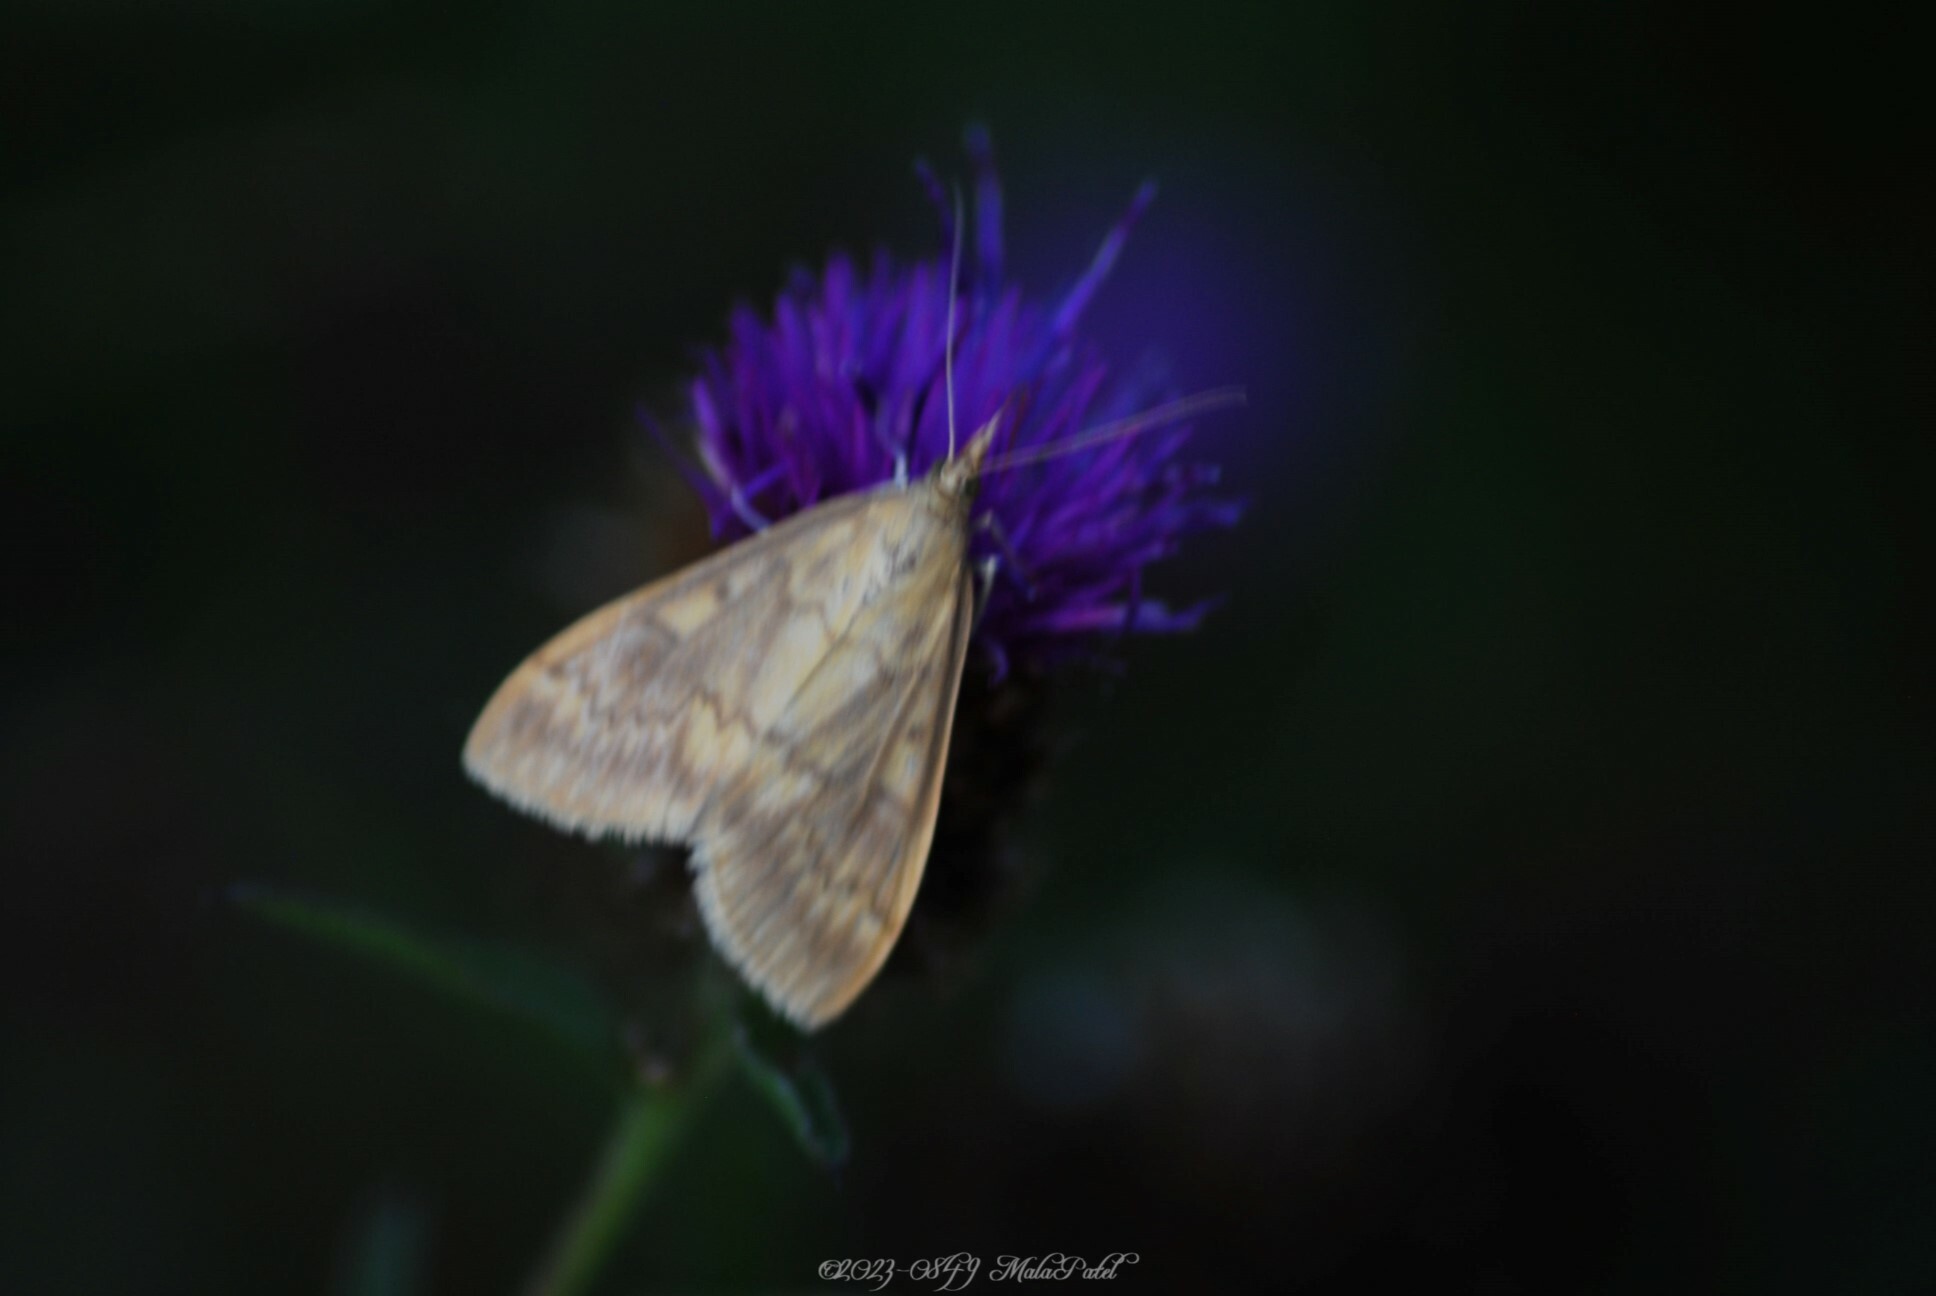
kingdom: Animalia
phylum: Arthropoda
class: Insecta
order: Lepidoptera
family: Crambidae
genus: Ostrinia
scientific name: Ostrinia nubilalis
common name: European corn borer
